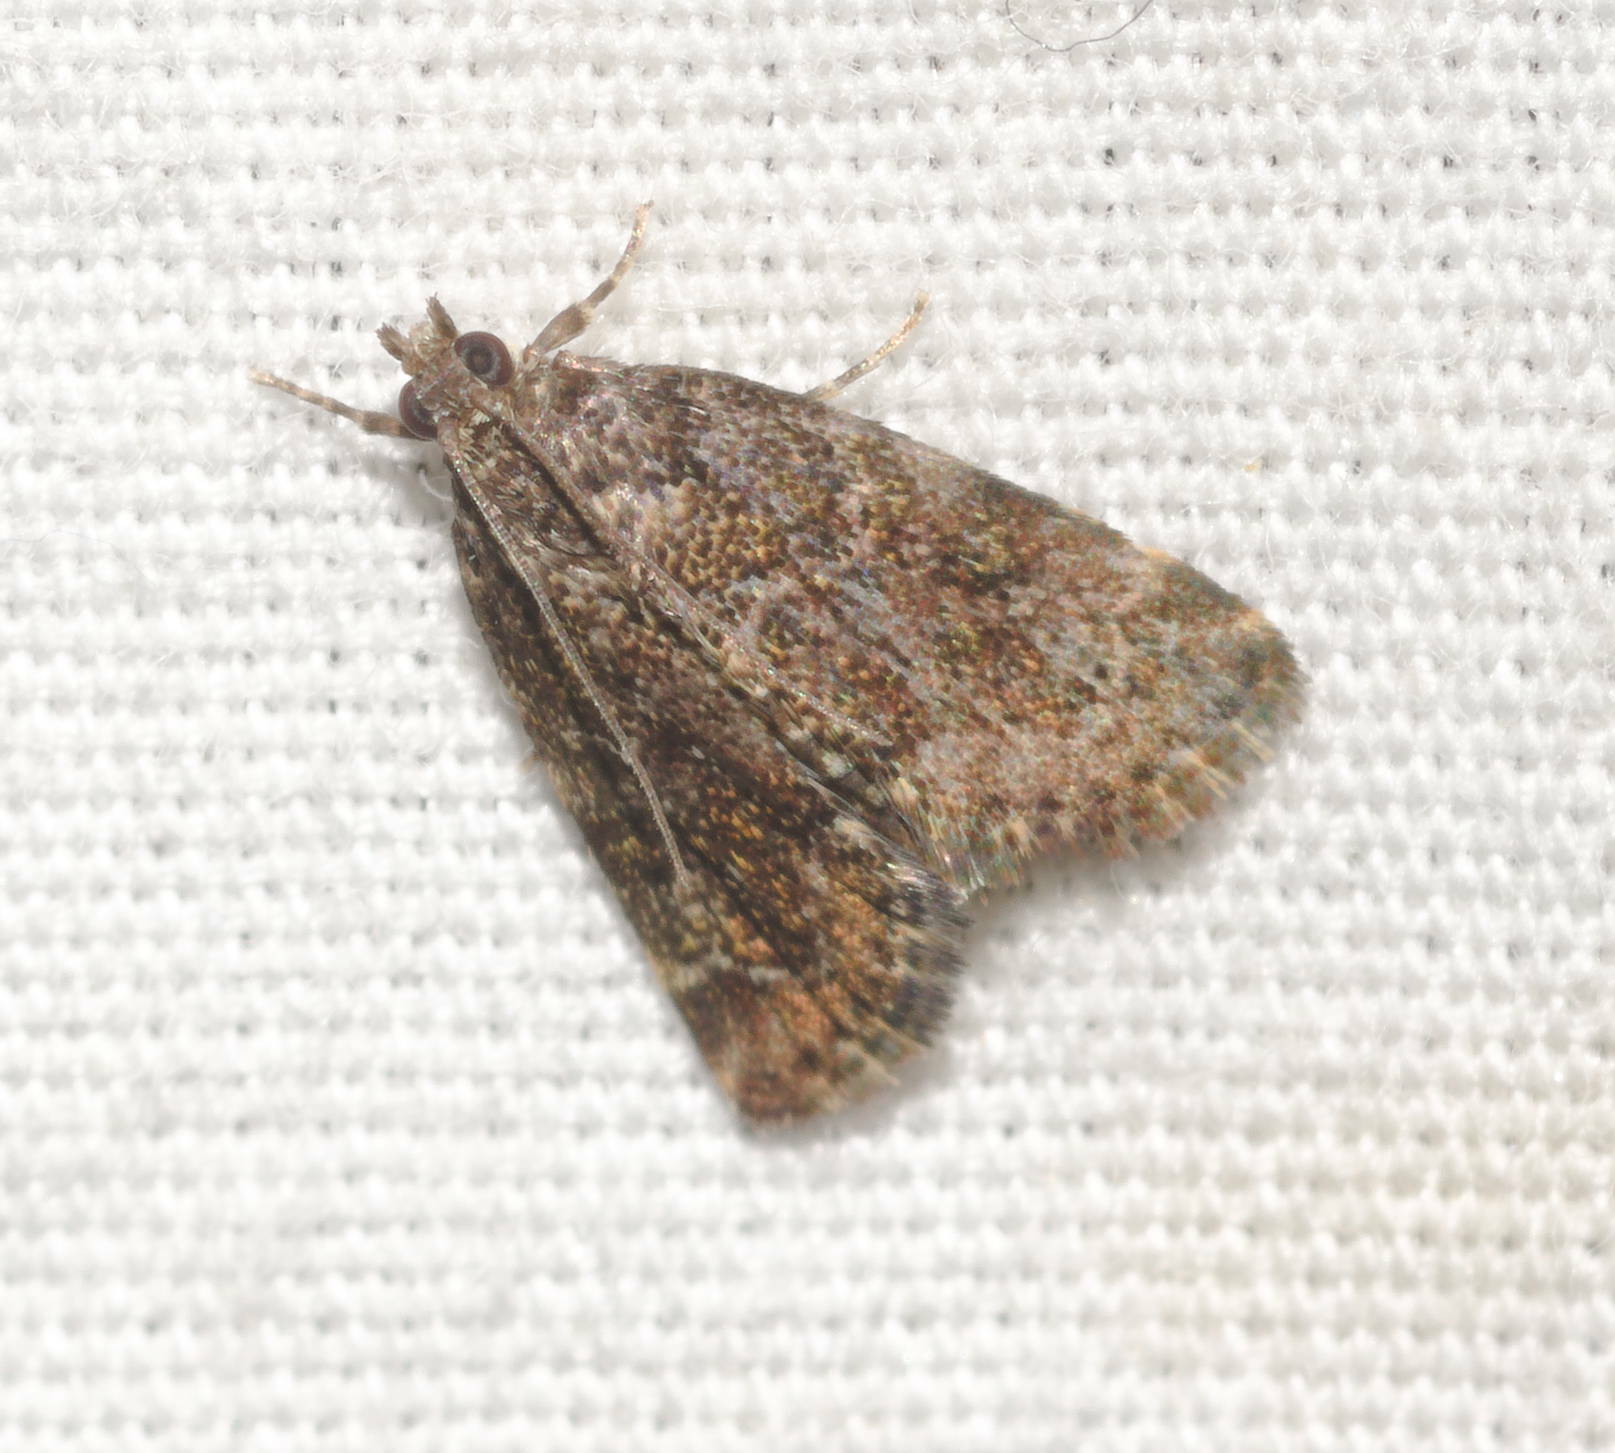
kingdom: Animalia
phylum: Arthropoda
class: Insecta
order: Lepidoptera
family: Crambidae
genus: Mestolobes
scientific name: Mestolobes abnormis
